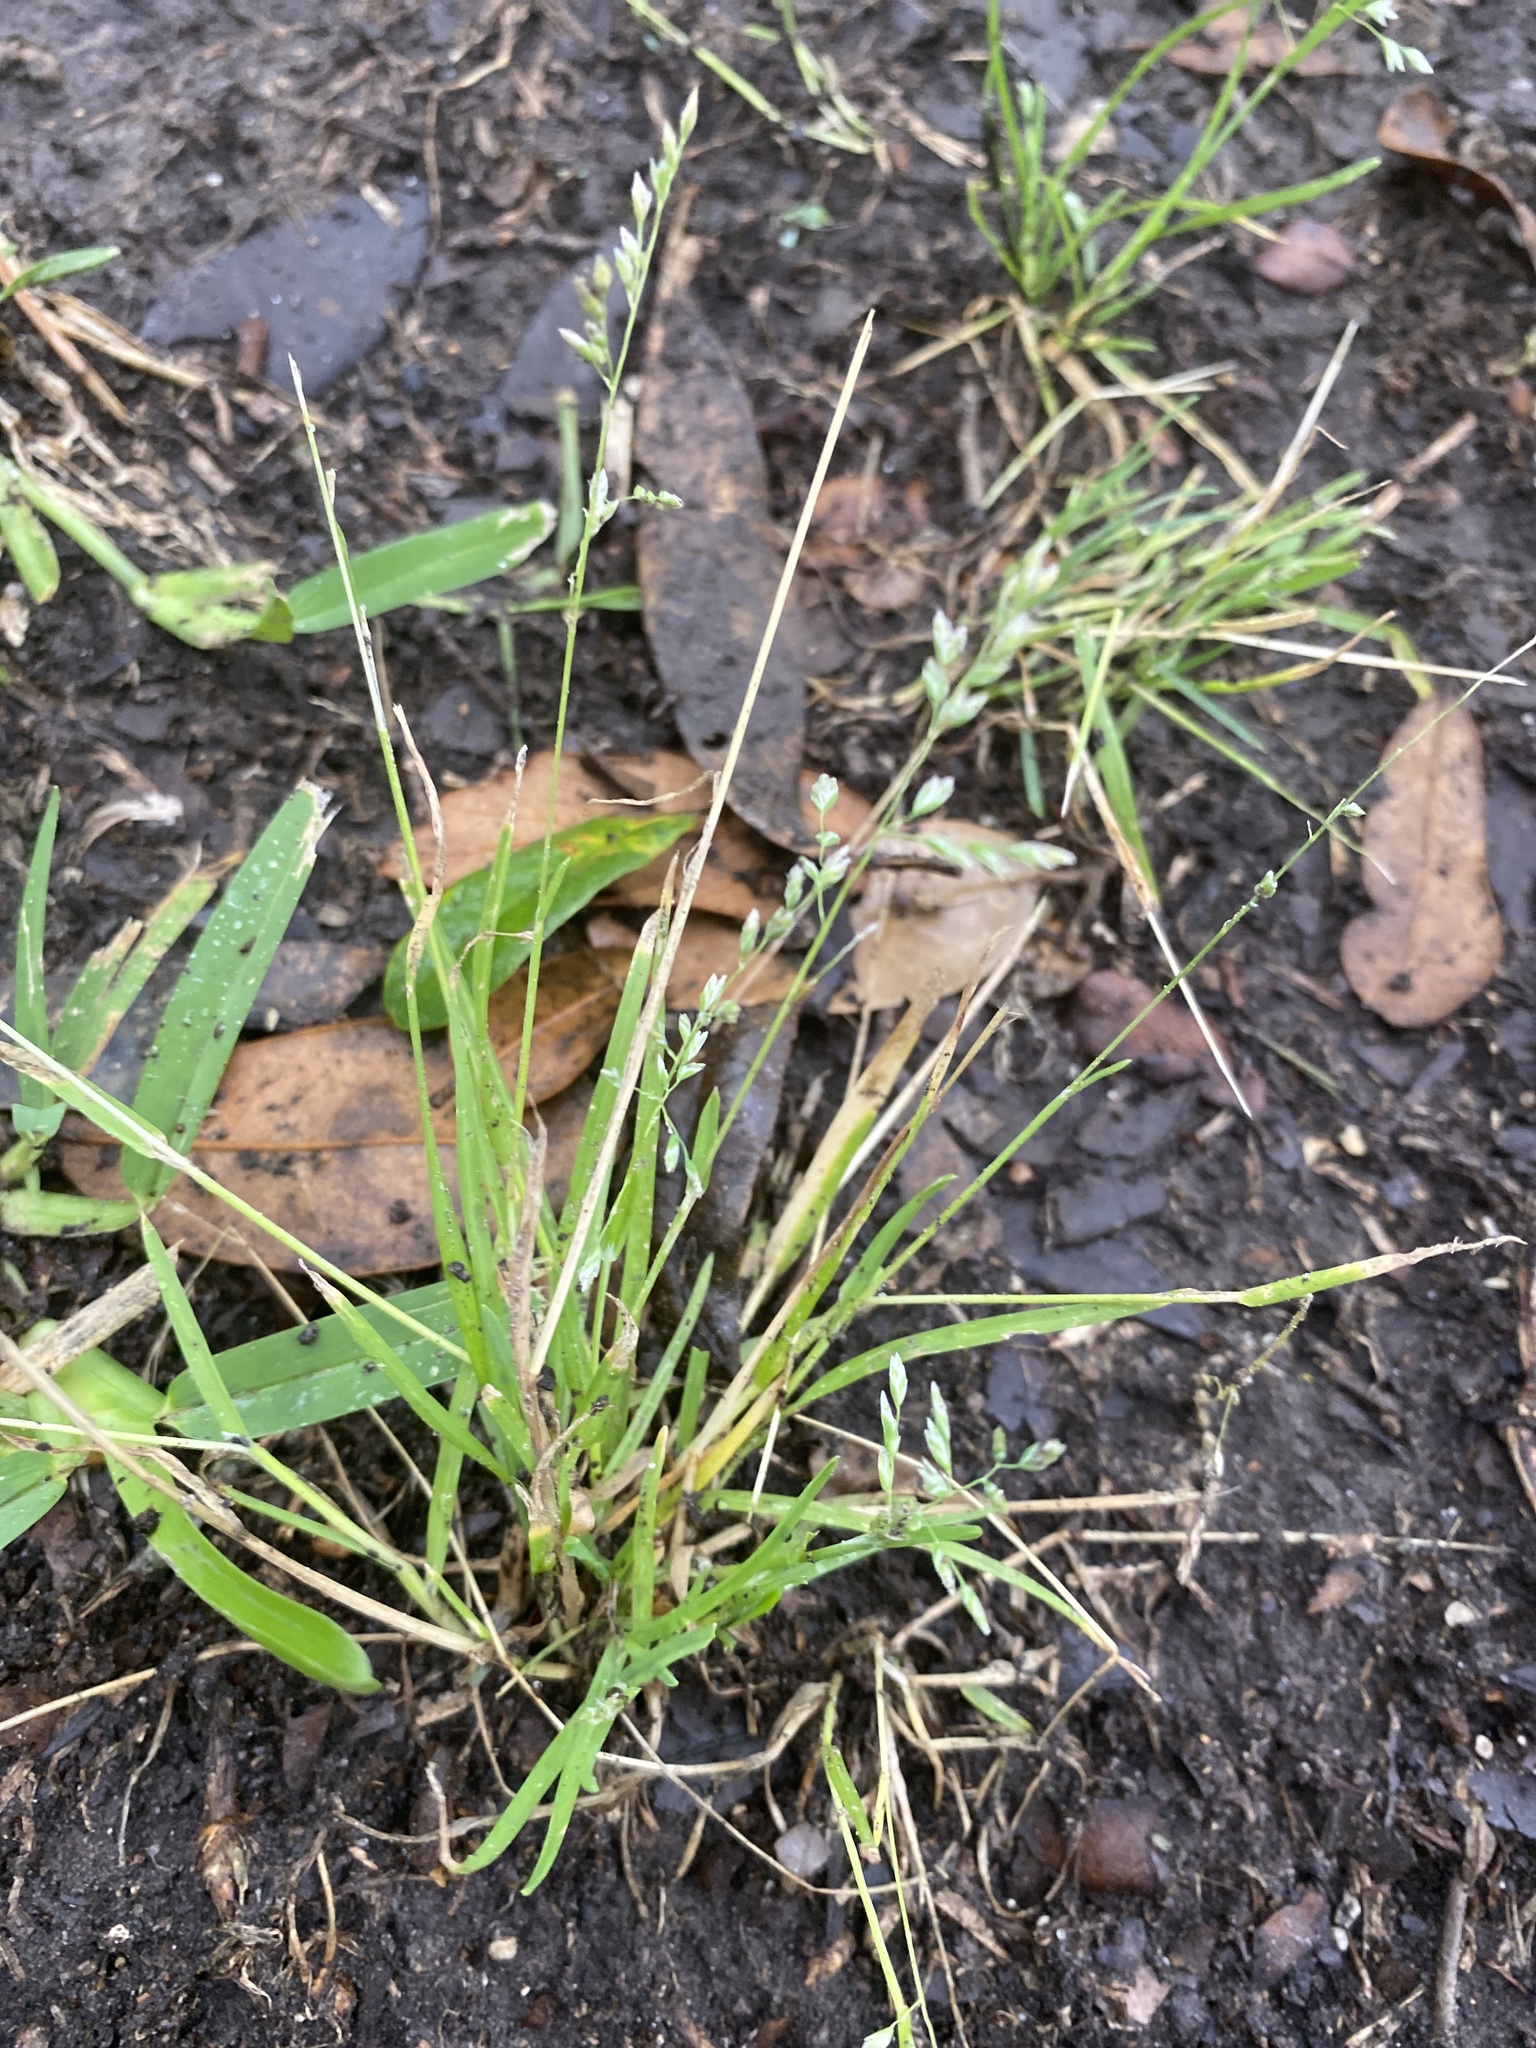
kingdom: Plantae
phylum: Tracheophyta
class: Liliopsida
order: Poales
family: Poaceae
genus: Poa
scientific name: Poa annua
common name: Annual bluegrass
